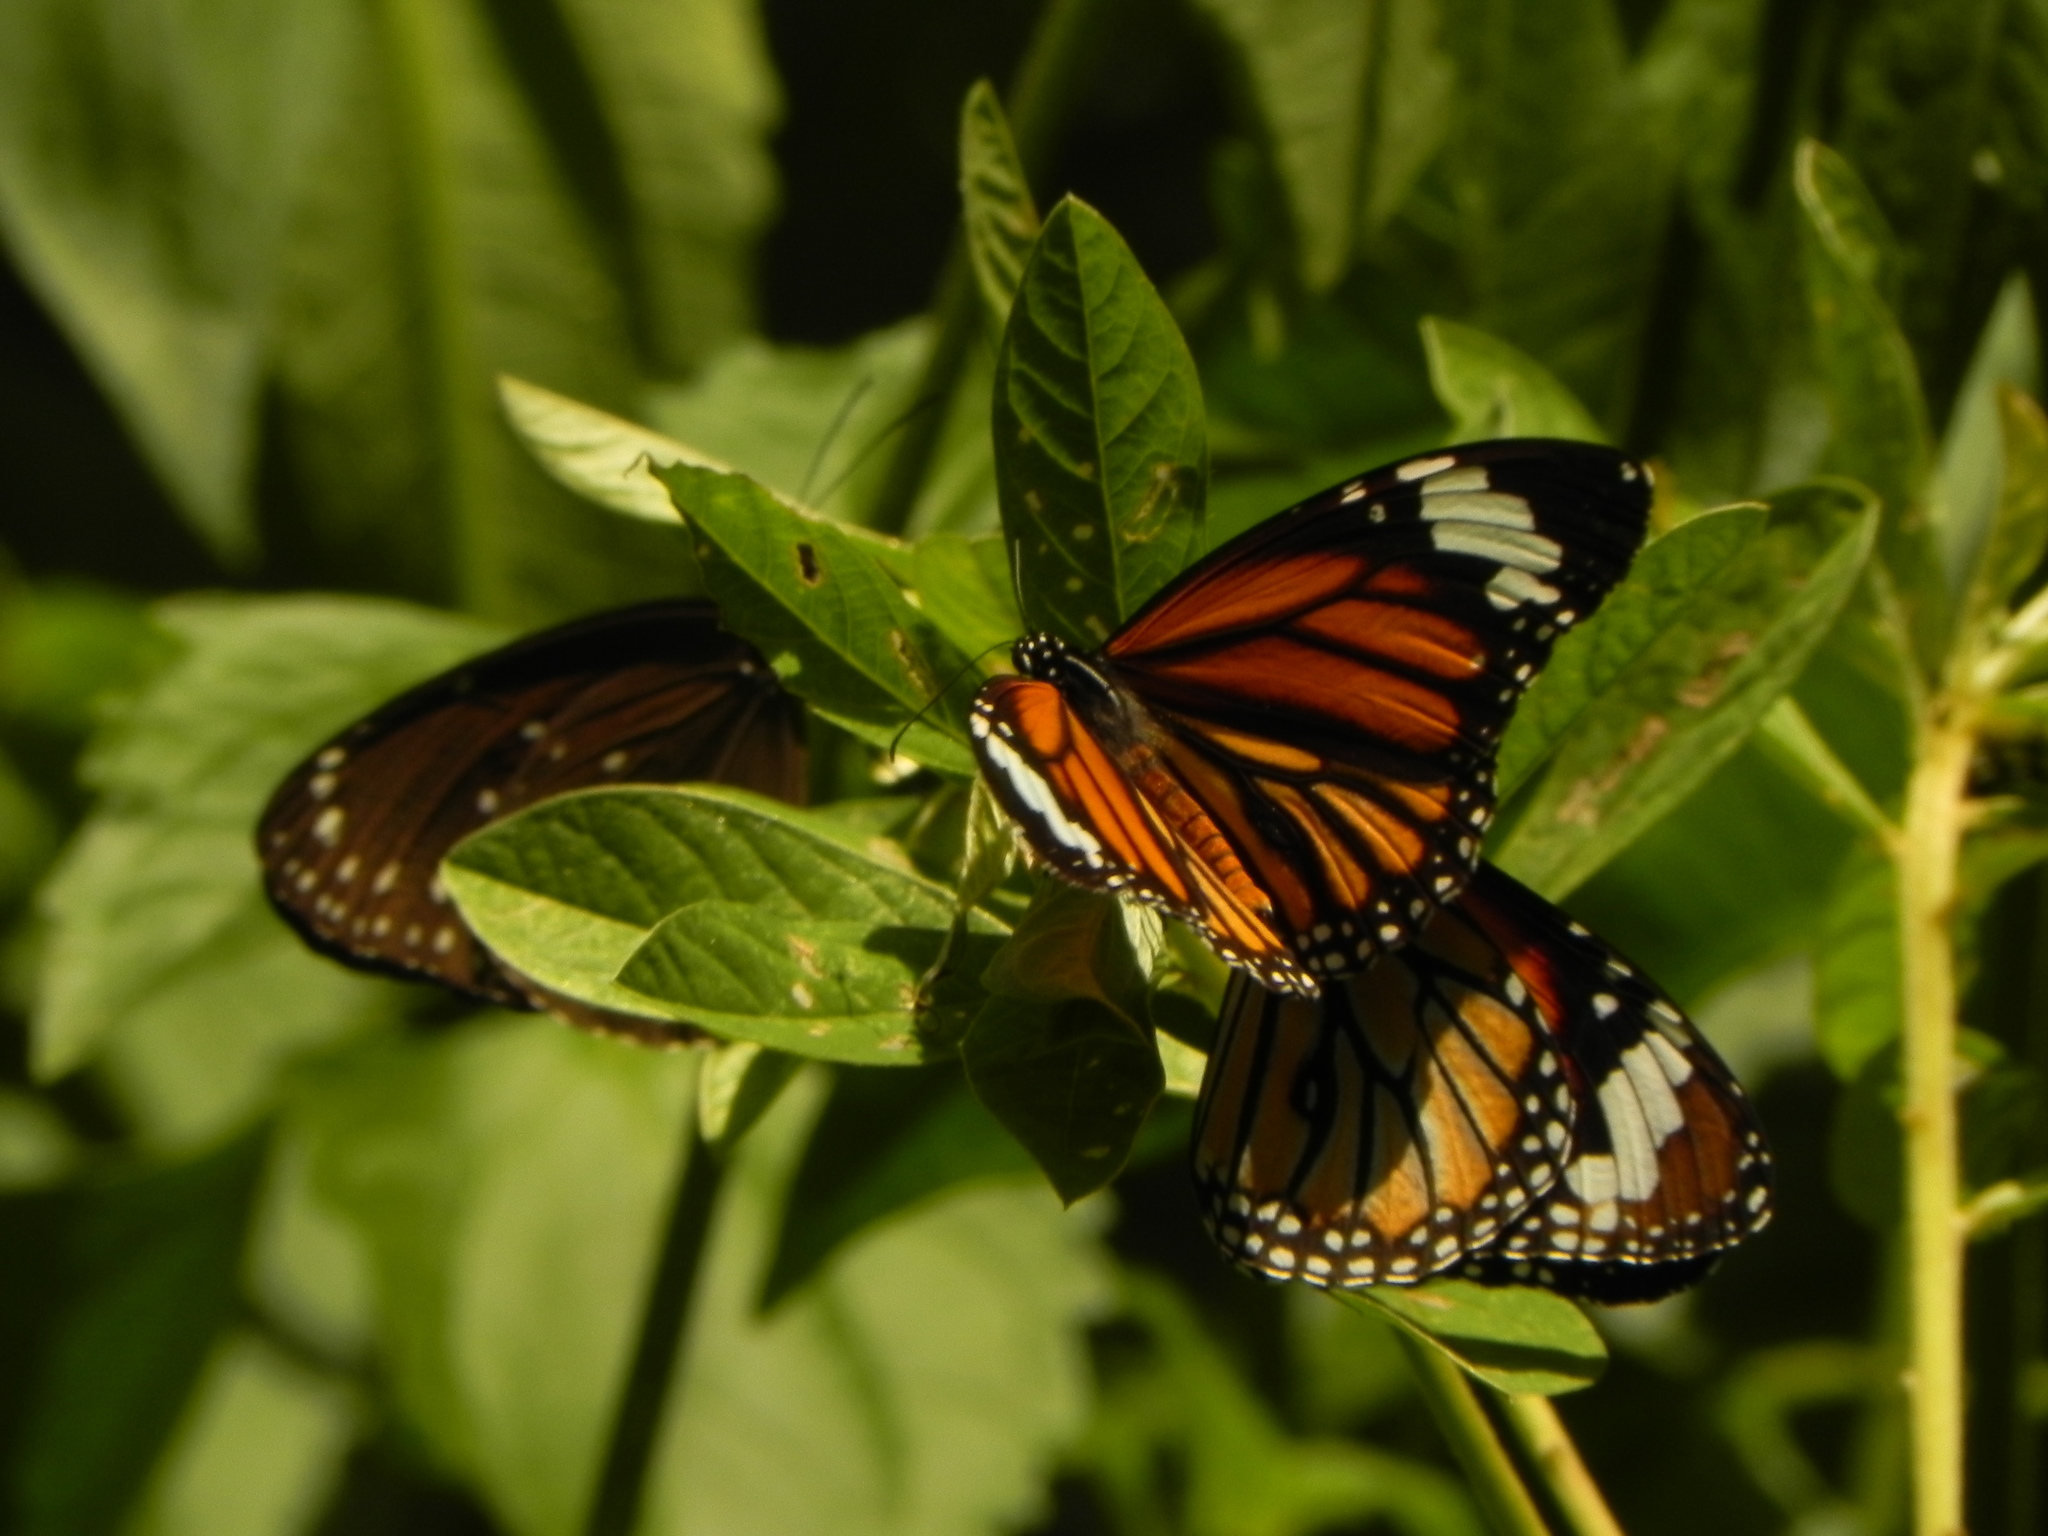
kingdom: Animalia
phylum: Arthropoda
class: Insecta
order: Lepidoptera
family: Nymphalidae
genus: Danaus
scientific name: Danaus genutia
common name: Common tiger butterfly
